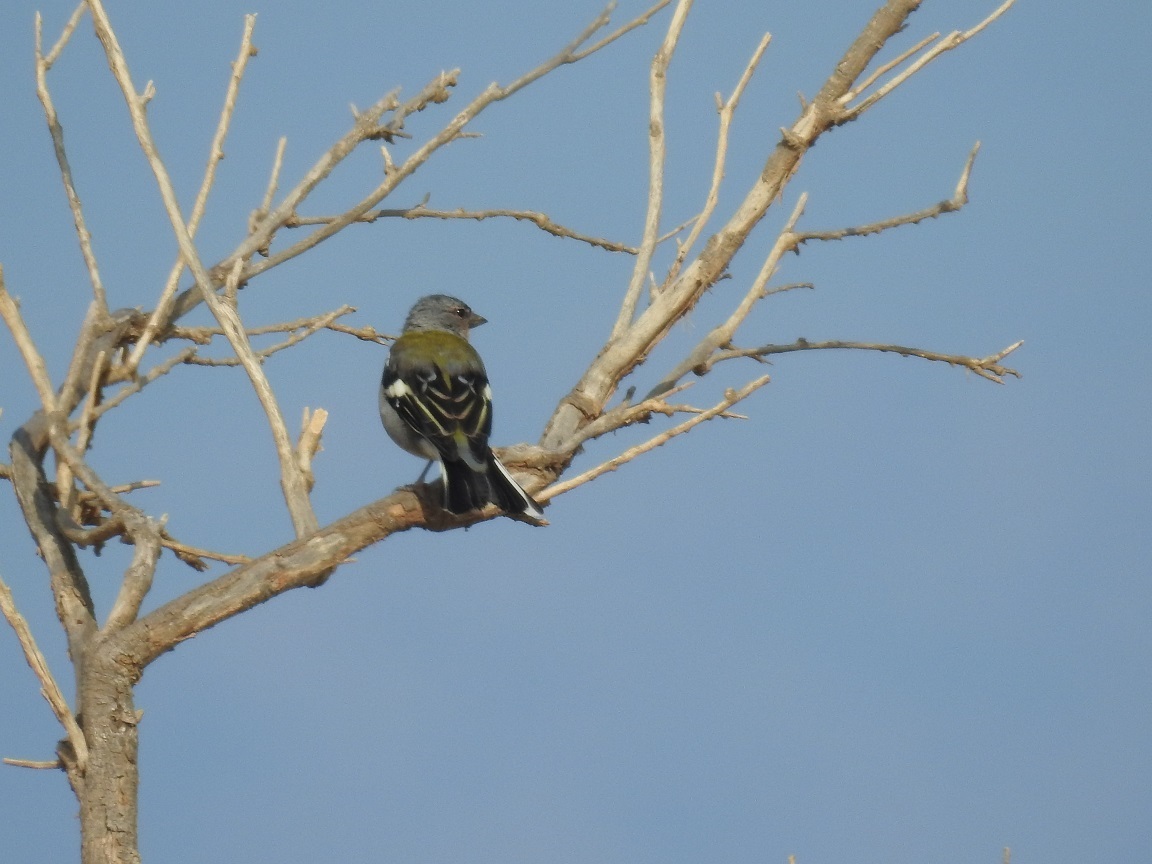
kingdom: Animalia
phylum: Chordata
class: Aves
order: Passeriformes
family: Fringillidae
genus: Fringilla
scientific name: Fringilla spodiogenys
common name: African chaffinch
